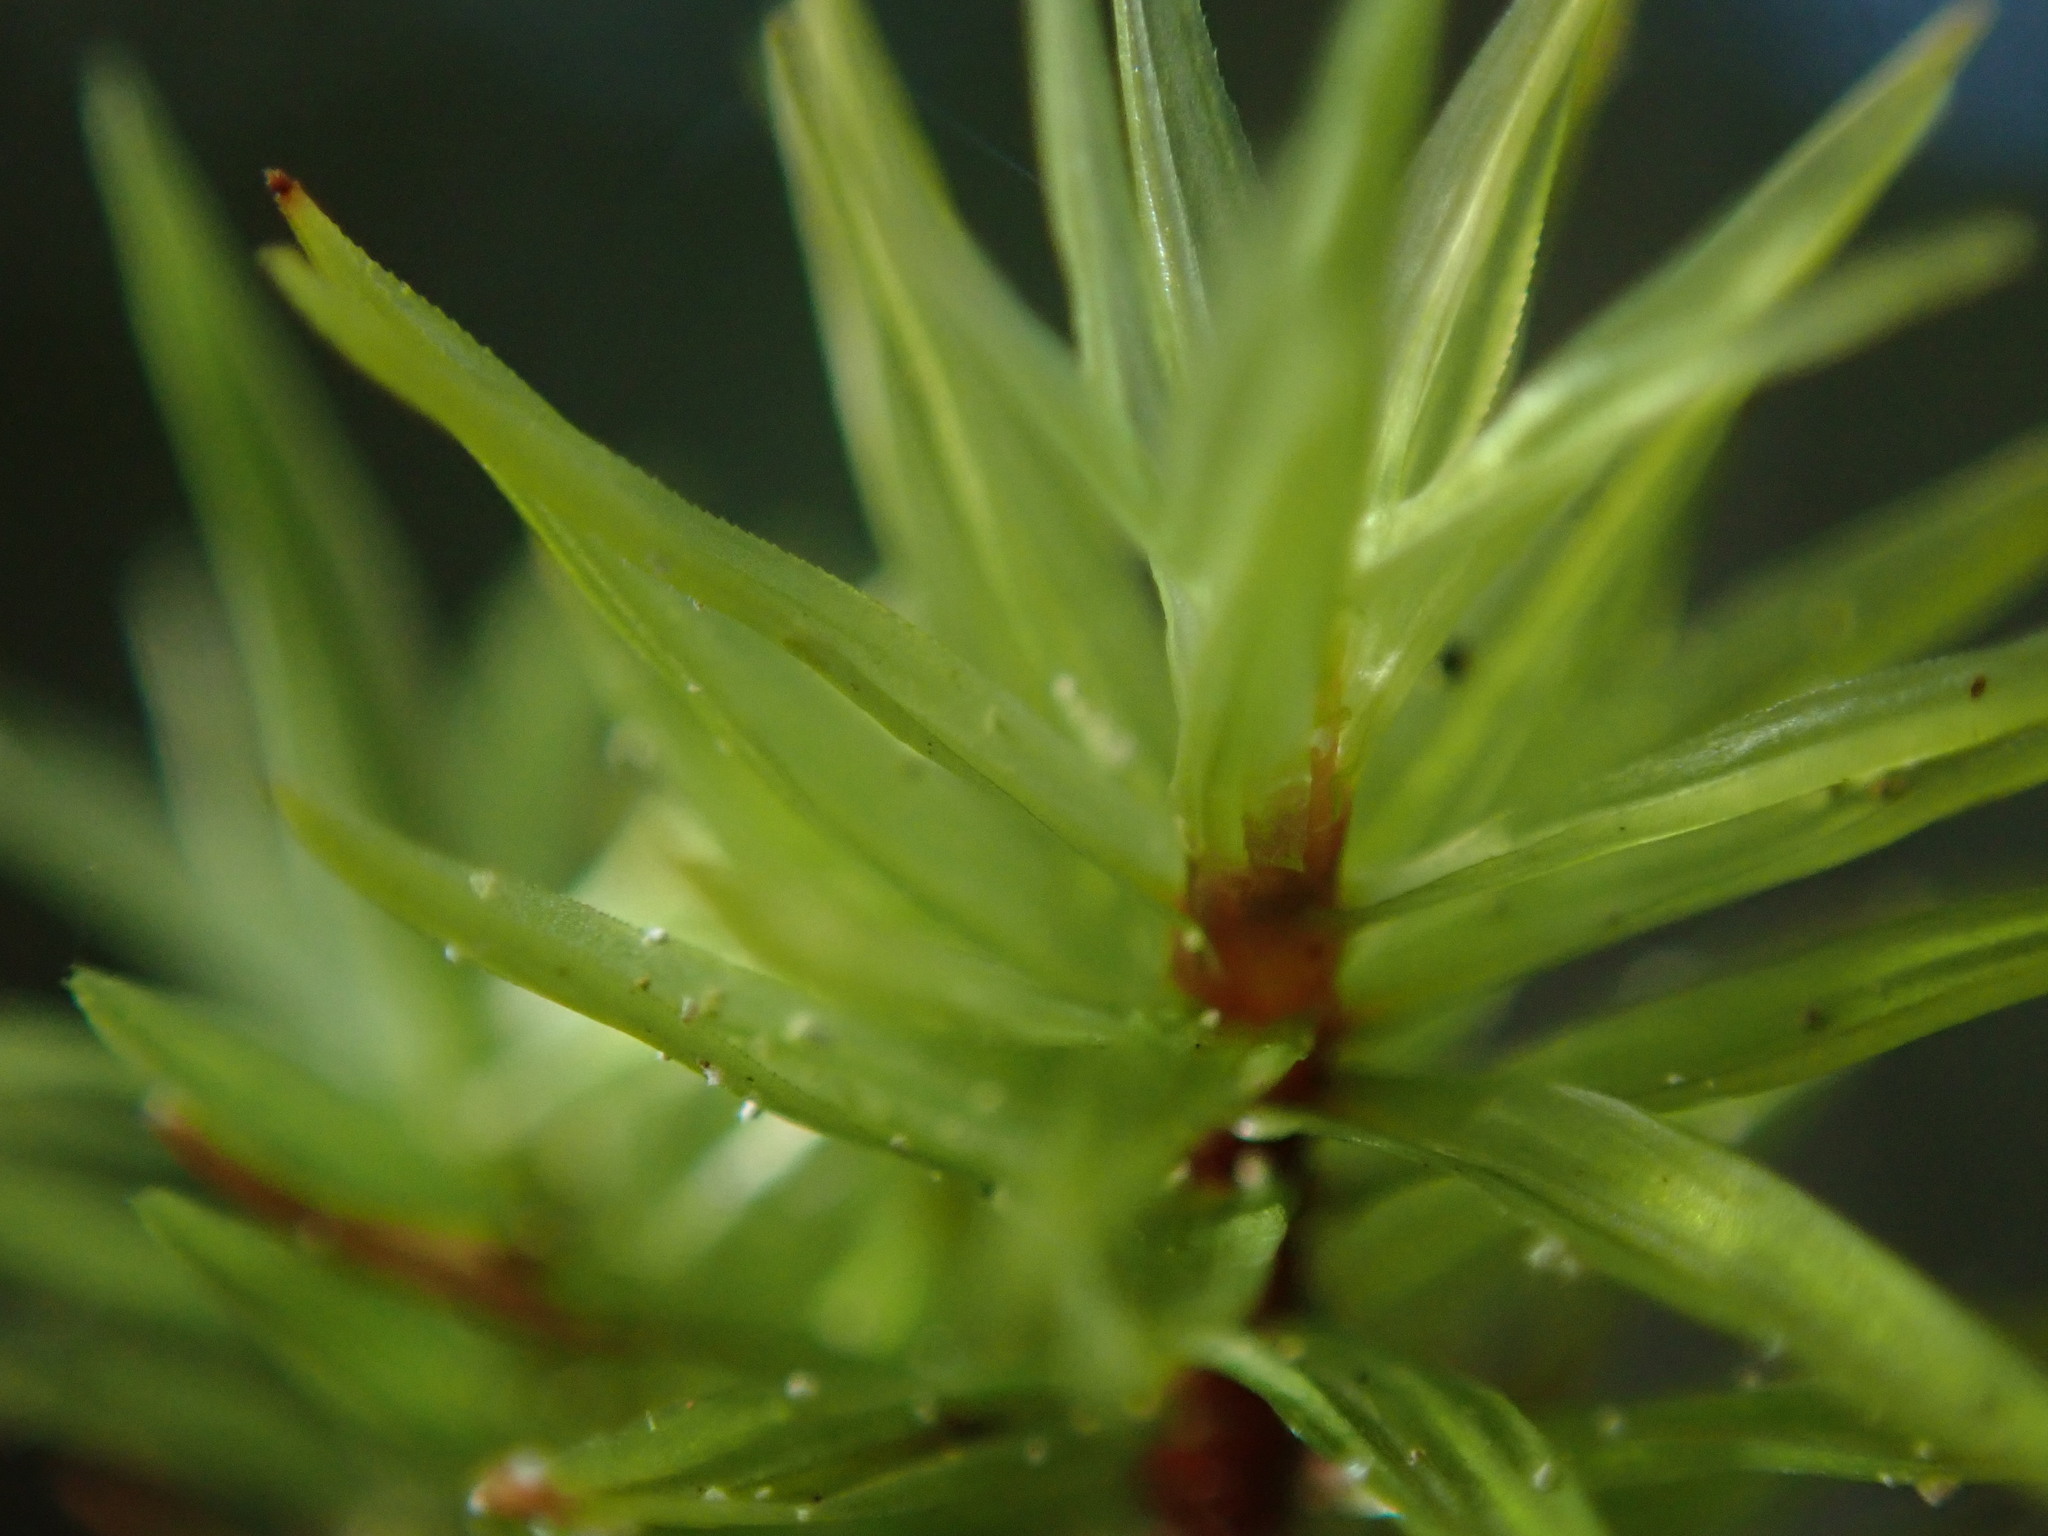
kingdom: Plantae
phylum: Bryophyta
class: Bryopsida
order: Timmiales
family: Timmiaceae
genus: Timmia
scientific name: Timmia austriaca
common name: Austrian timmia
